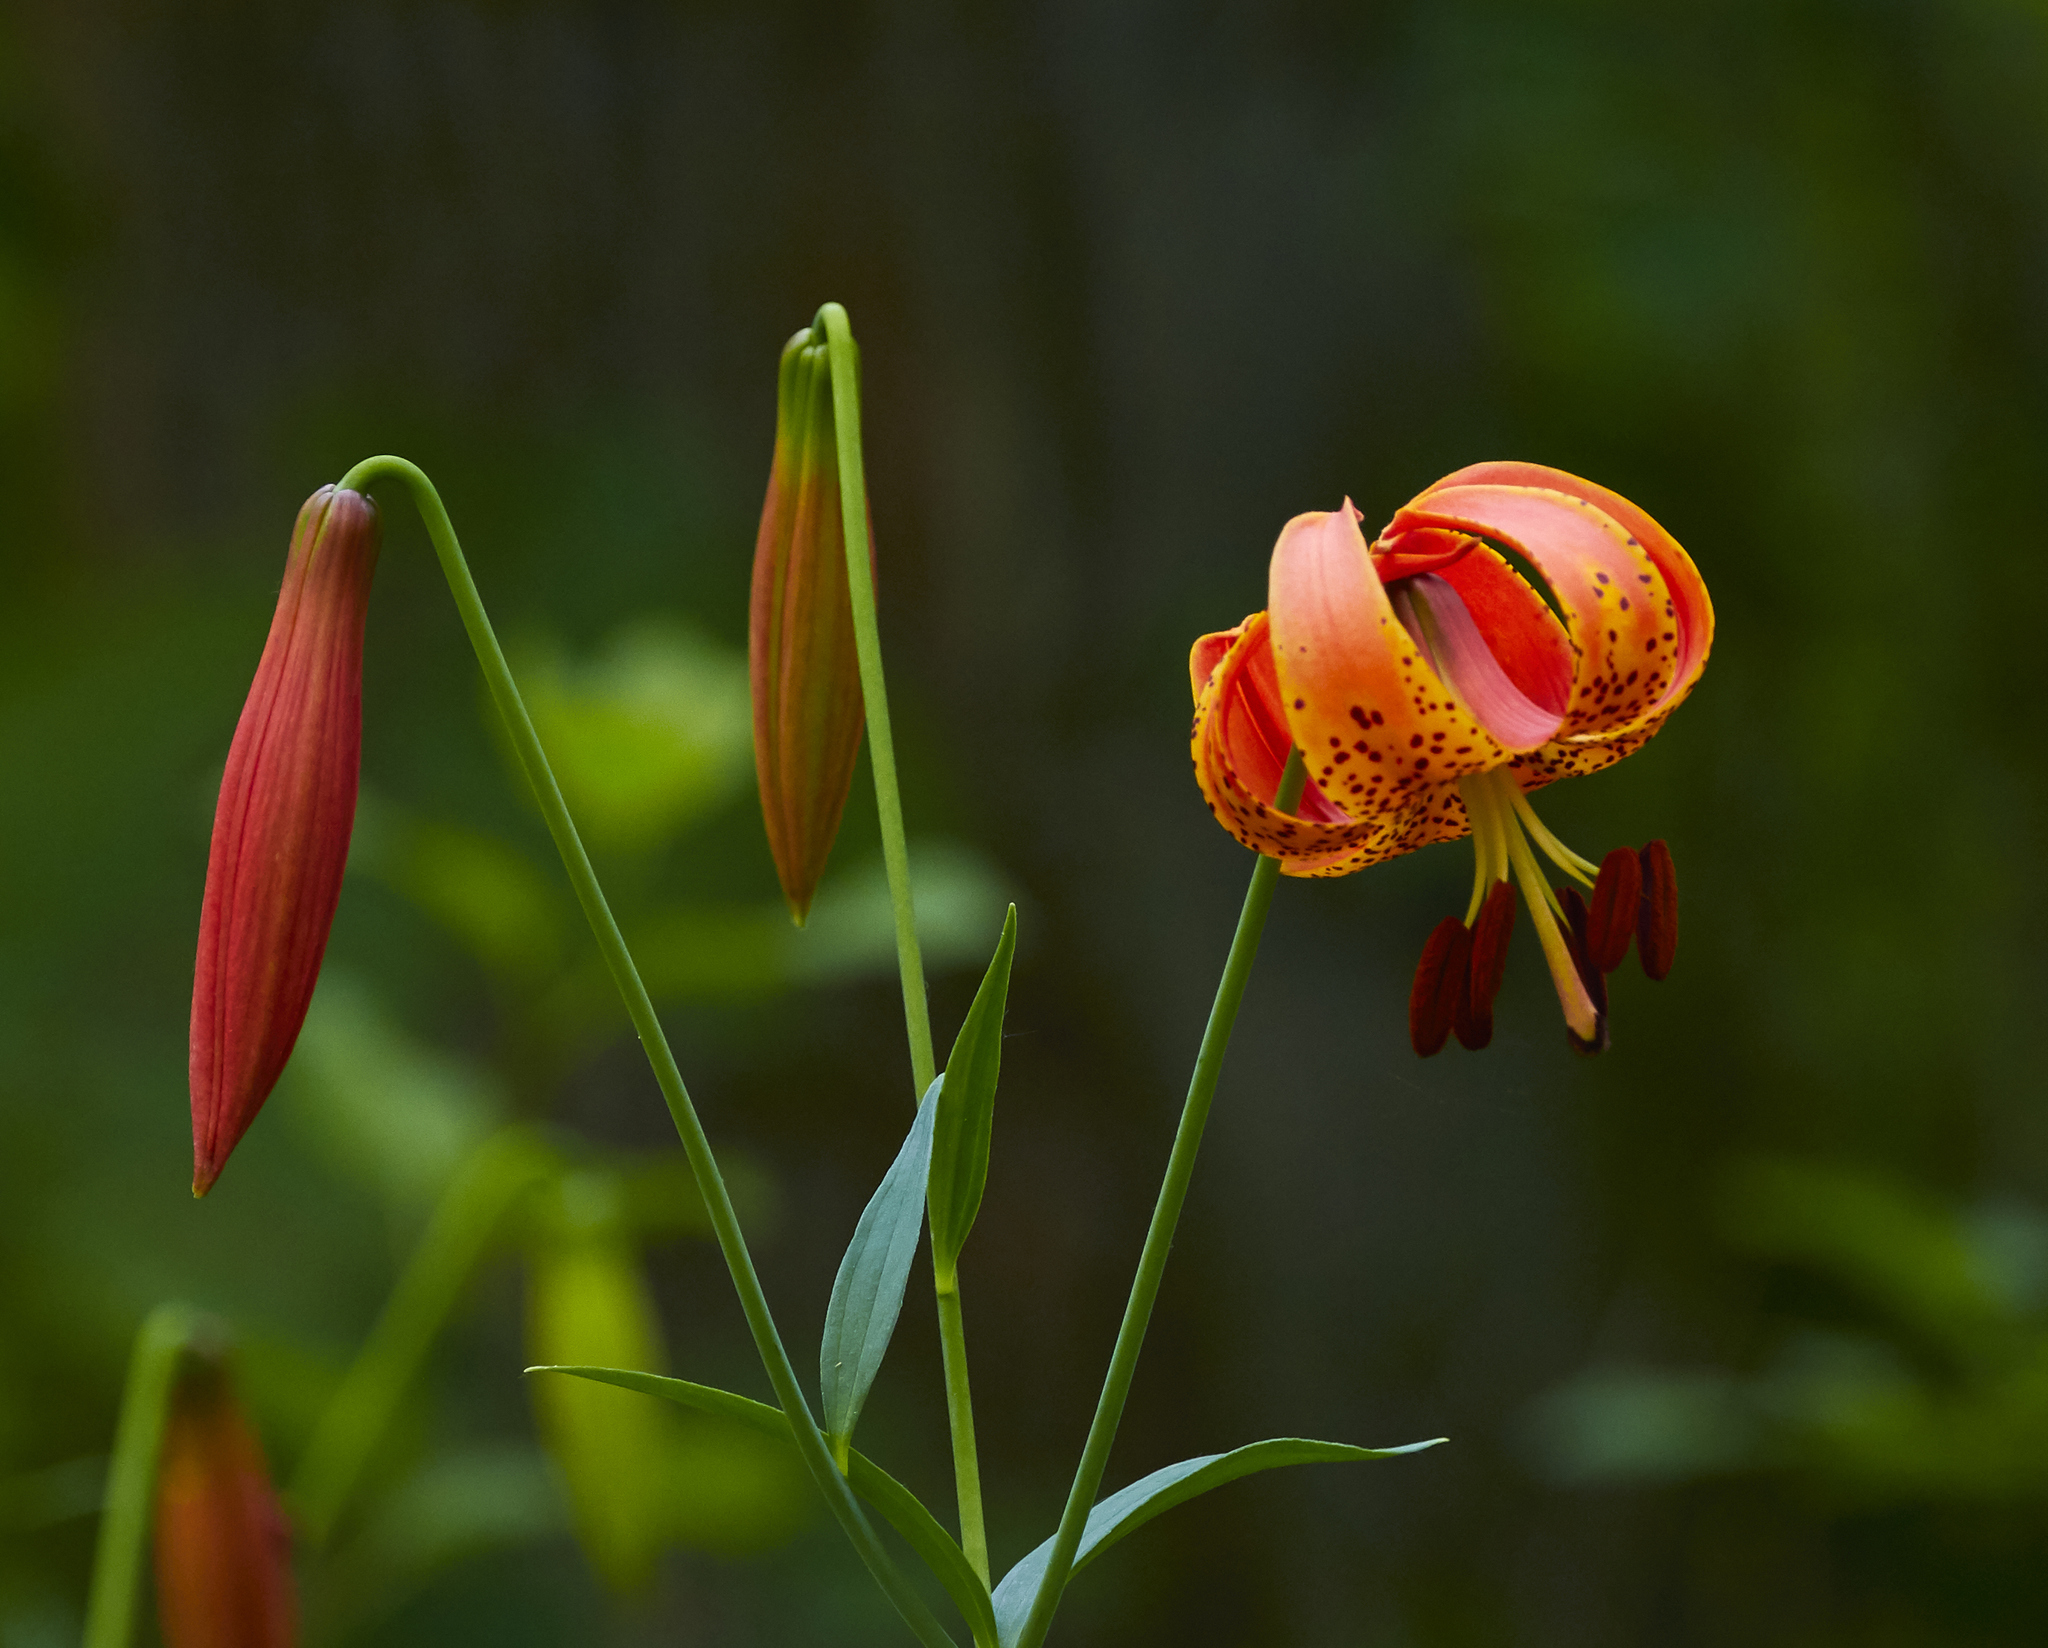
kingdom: Plantae
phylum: Tracheophyta
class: Liliopsida
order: Liliales
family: Liliaceae
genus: Lilium
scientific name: Lilium michiganense
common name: Michigan lily
